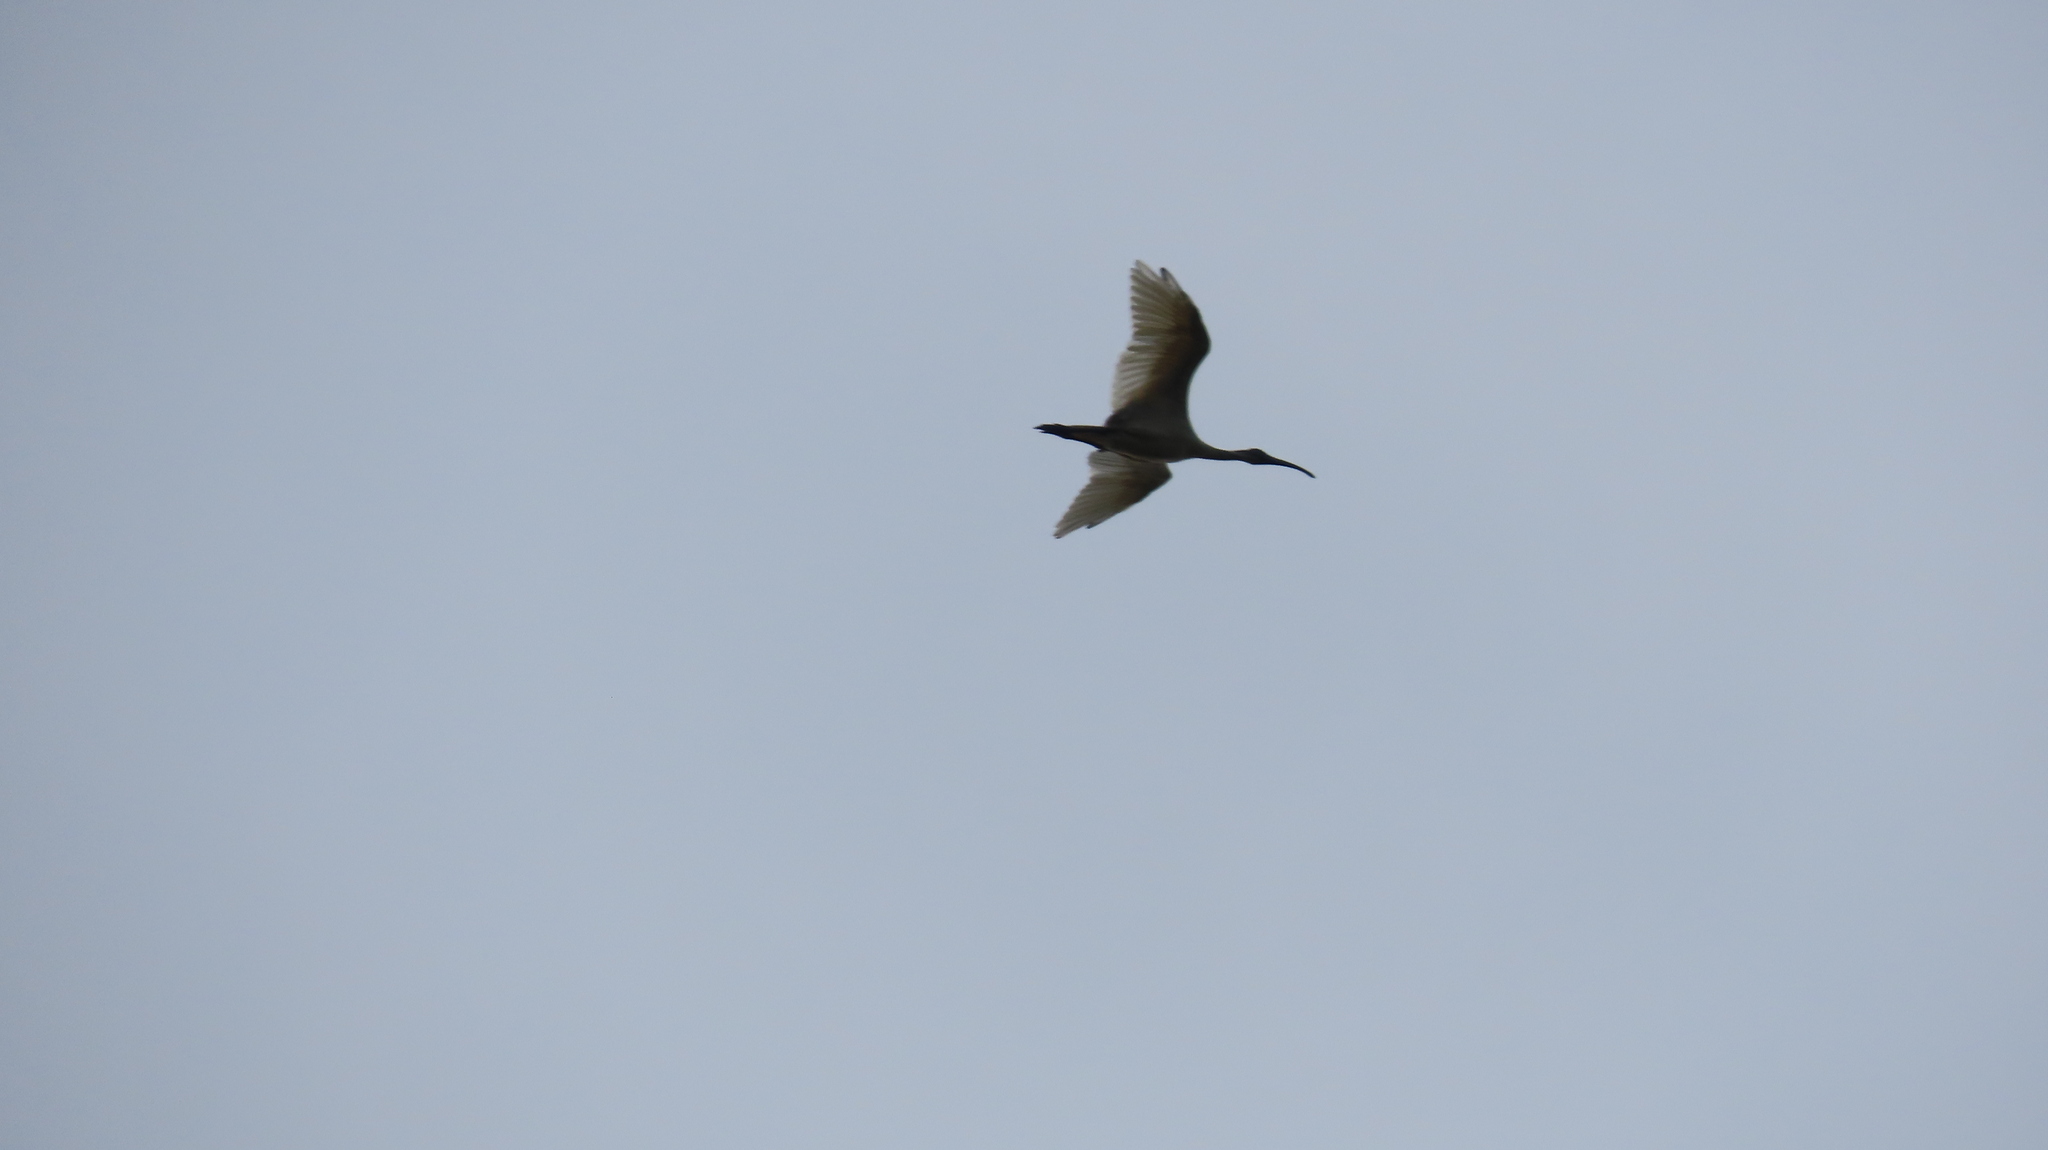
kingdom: Animalia
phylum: Chordata
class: Aves
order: Pelecaniformes
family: Threskiornithidae
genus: Threskiornis
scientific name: Threskiornis melanocephalus
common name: Black-headed ibis
